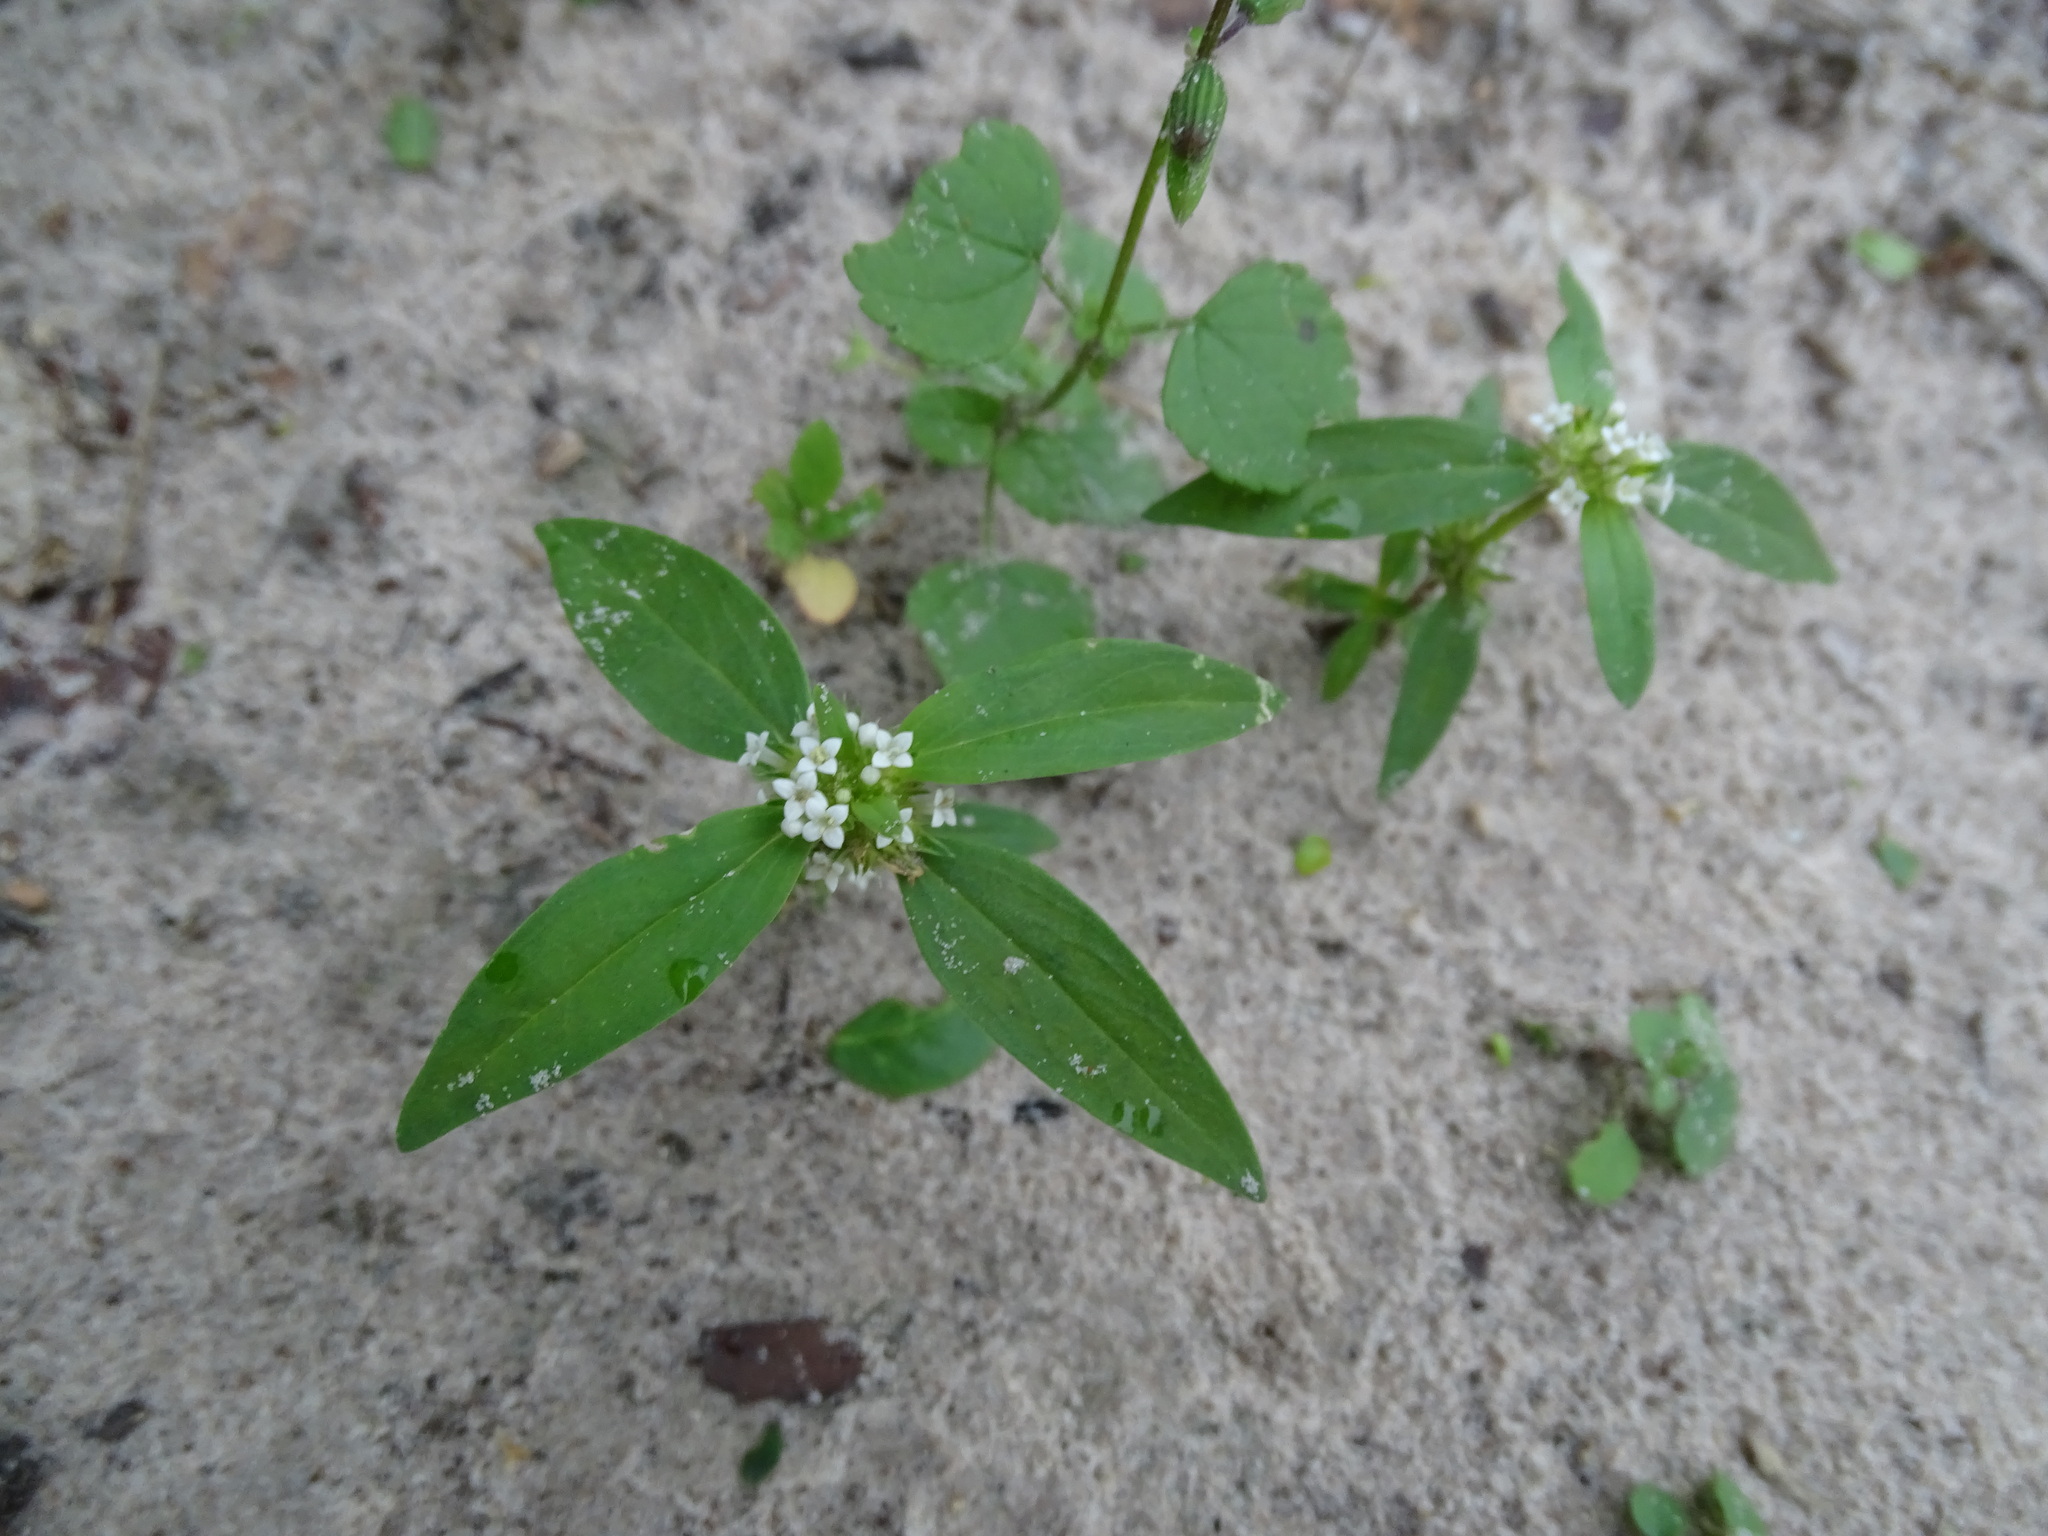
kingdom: Plantae
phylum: Tracheophyta
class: Magnoliopsida
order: Gentianales
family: Rubiaceae
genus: Mitracarpus
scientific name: Mitracarpus hirtus
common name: Tropical girdlepod
